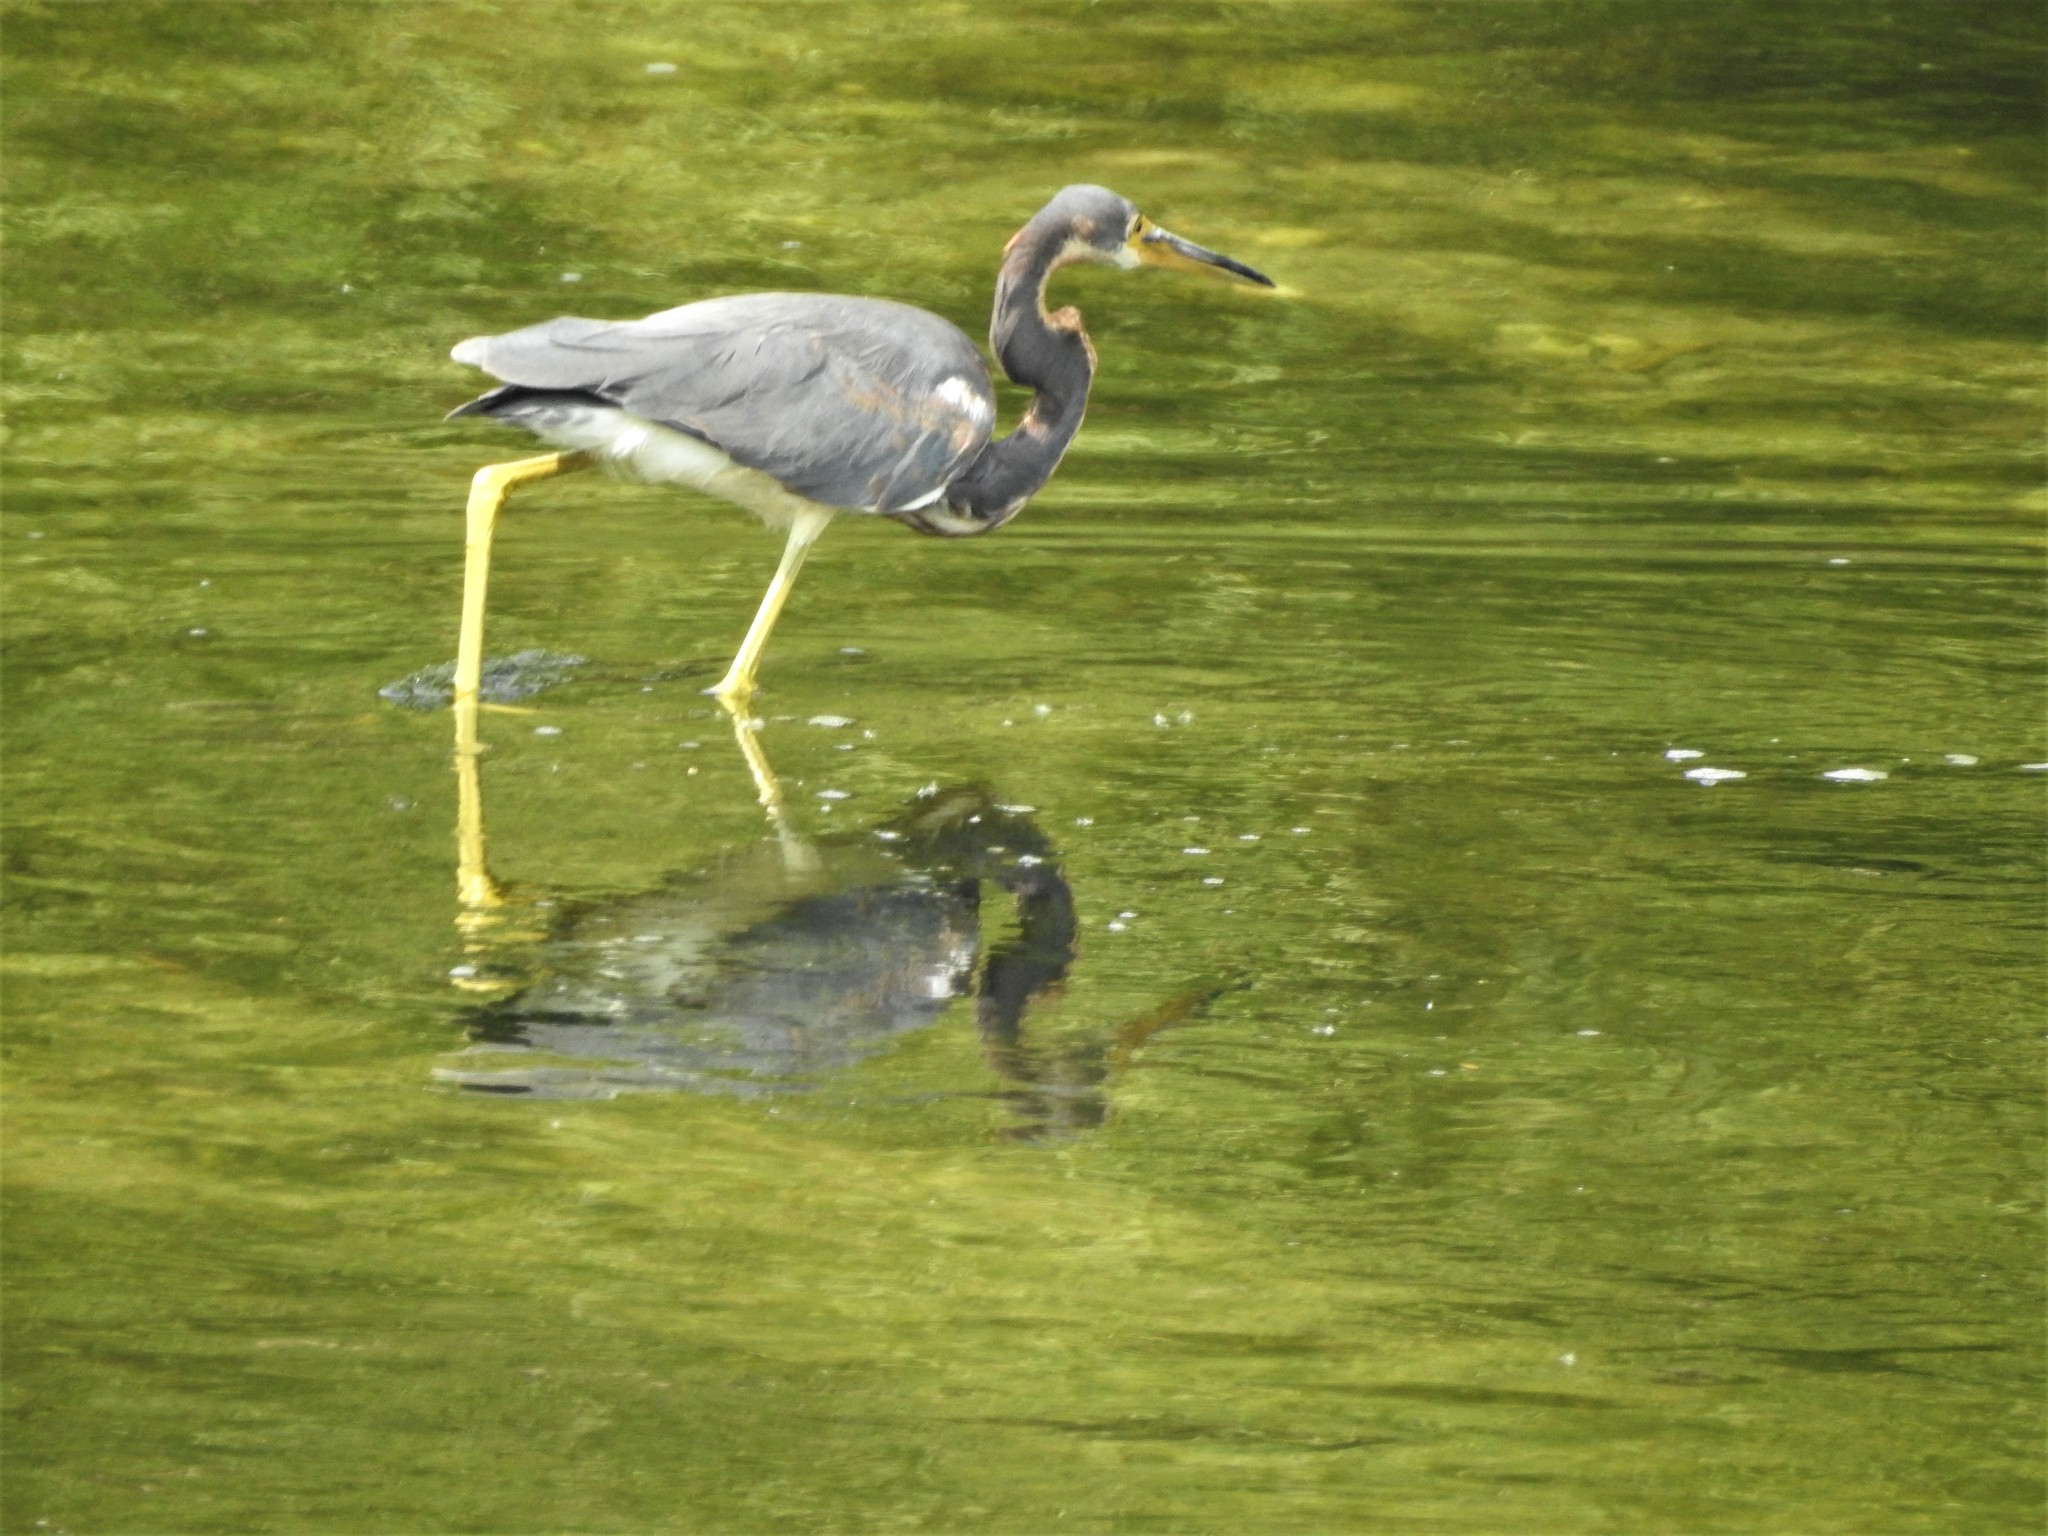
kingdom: Animalia
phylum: Chordata
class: Aves
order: Pelecaniformes
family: Ardeidae
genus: Egretta
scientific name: Egretta tricolor
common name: Tricolored heron
